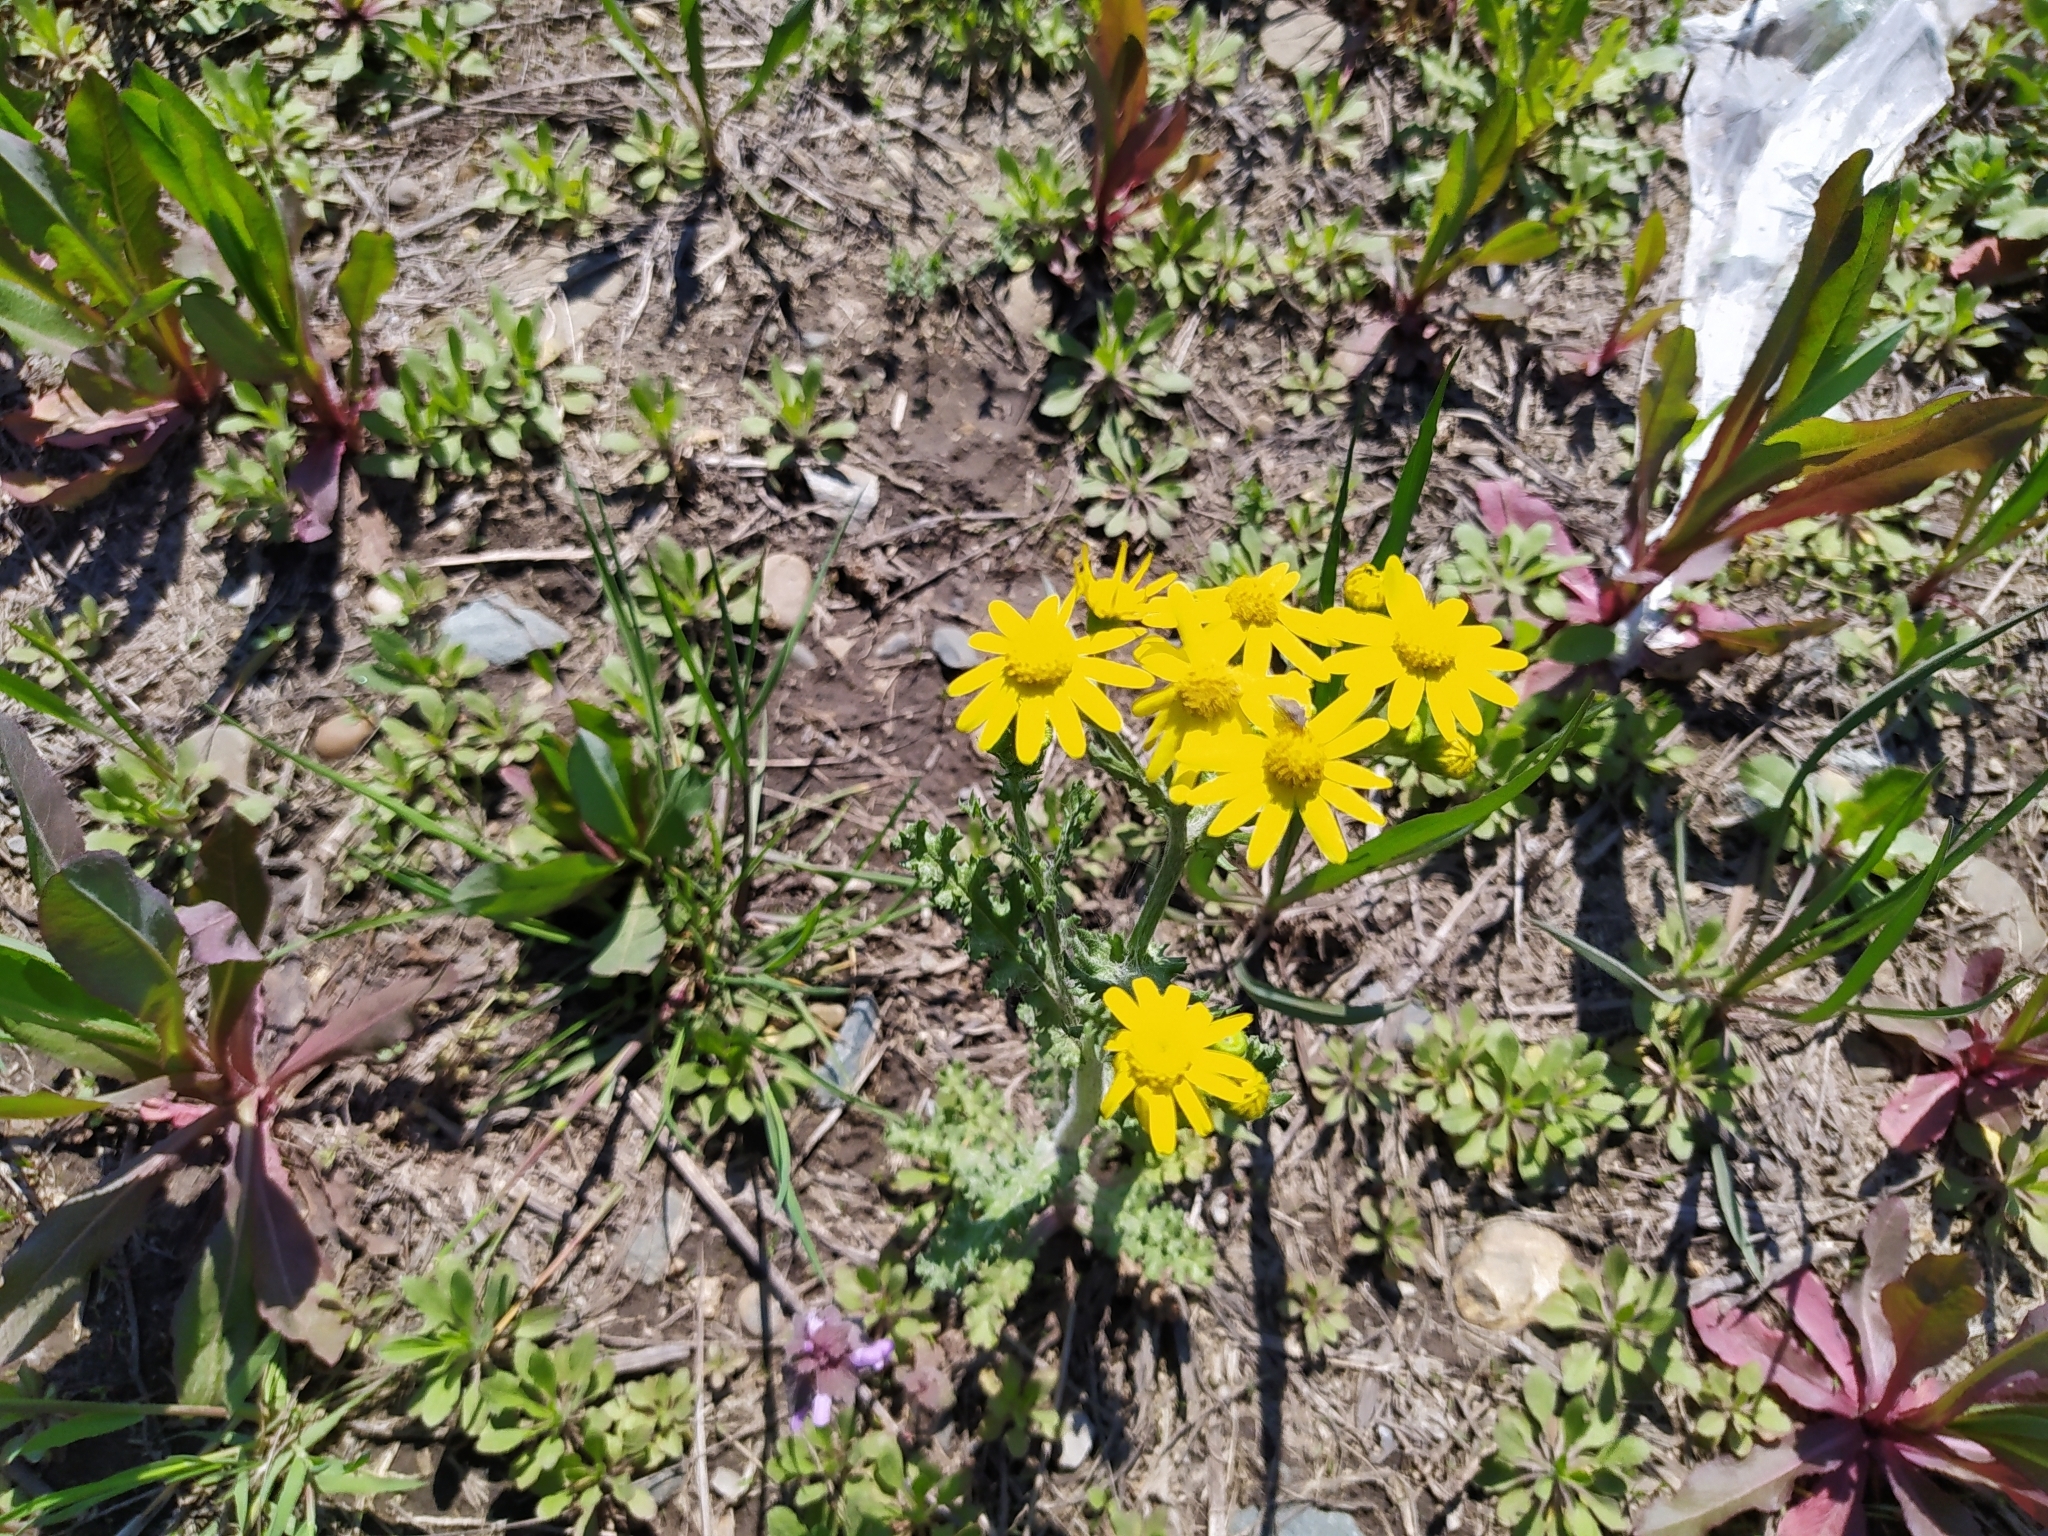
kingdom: Plantae
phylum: Tracheophyta
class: Magnoliopsida
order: Asterales
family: Asteraceae
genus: Senecio
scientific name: Senecio vernalis
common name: Eastern groundsel
